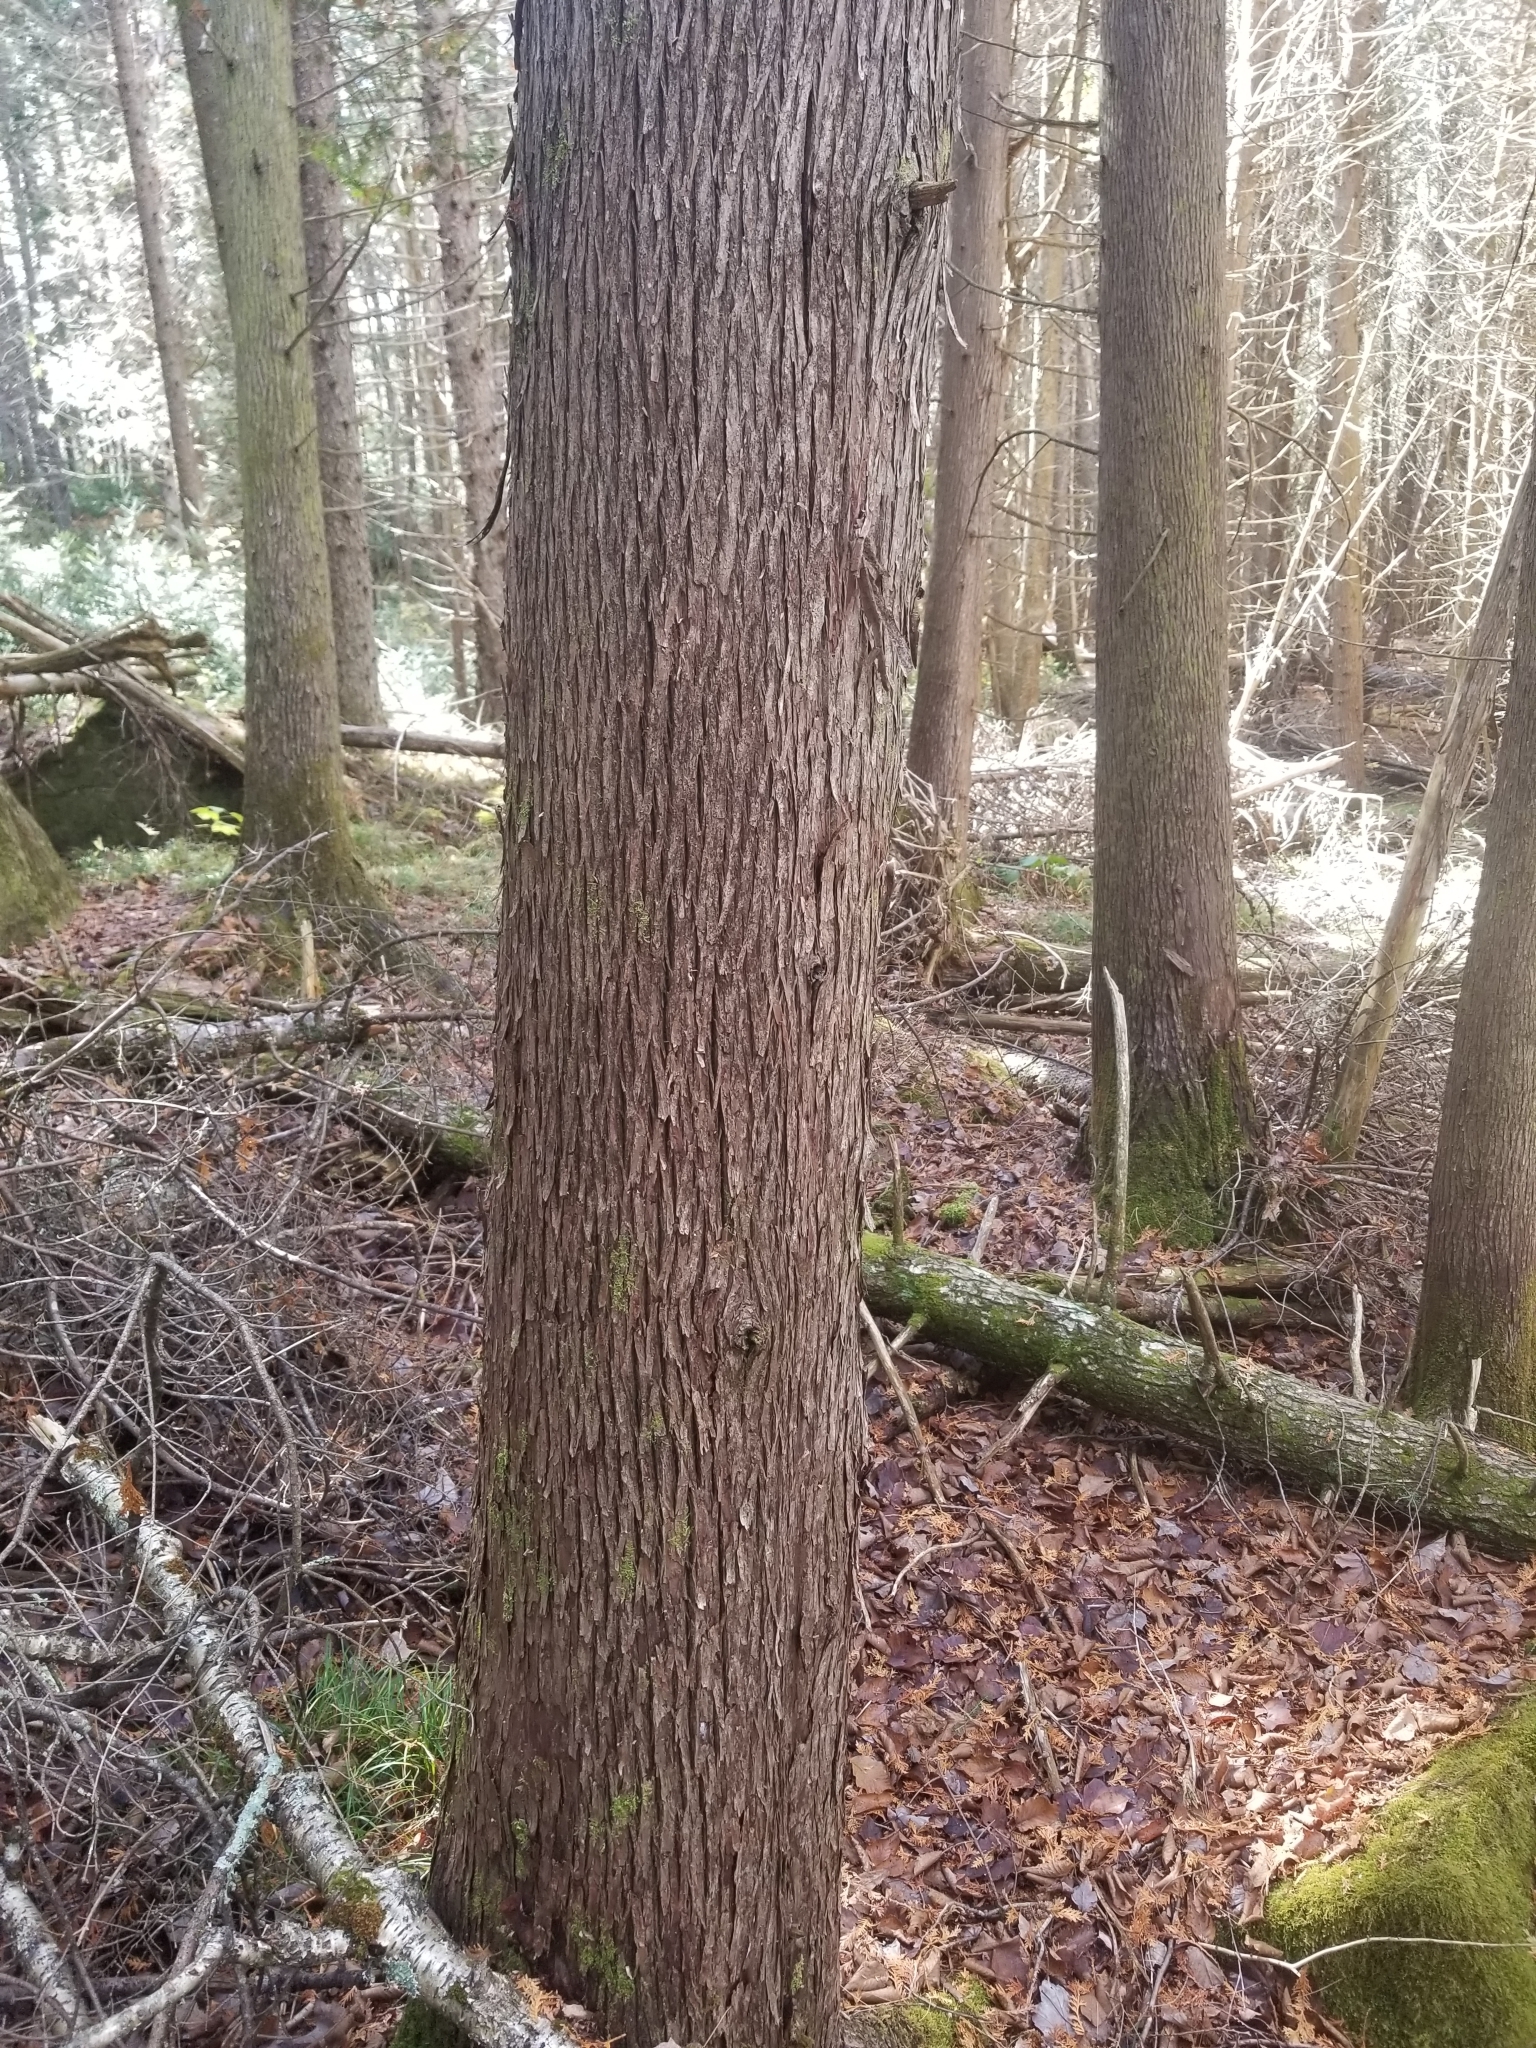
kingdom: Plantae
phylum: Tracheophyta
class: Pinopsida
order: Pinales
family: Cupressaceae
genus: Thuja
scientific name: Thuja occidentalis
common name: Northern white-cedar
